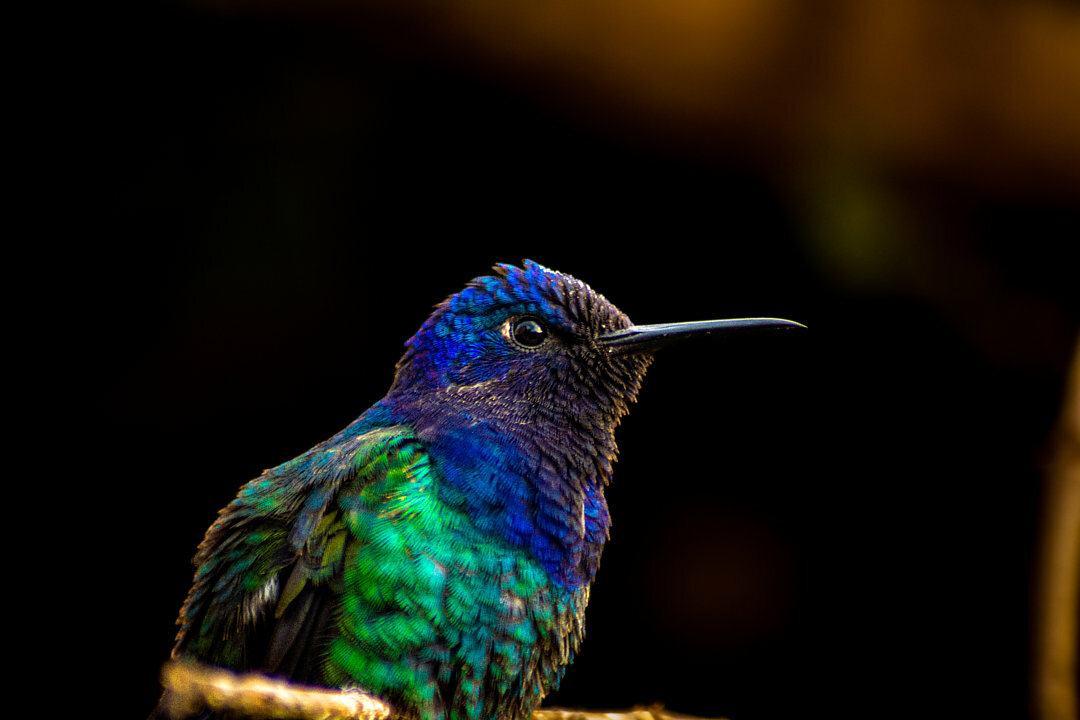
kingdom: Animalia
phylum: Chordata
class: Aves
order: Apodiformes
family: Trochilidae
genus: Eupetomena
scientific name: Eupetomena macroura
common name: Swallow-tailed hummingbird
